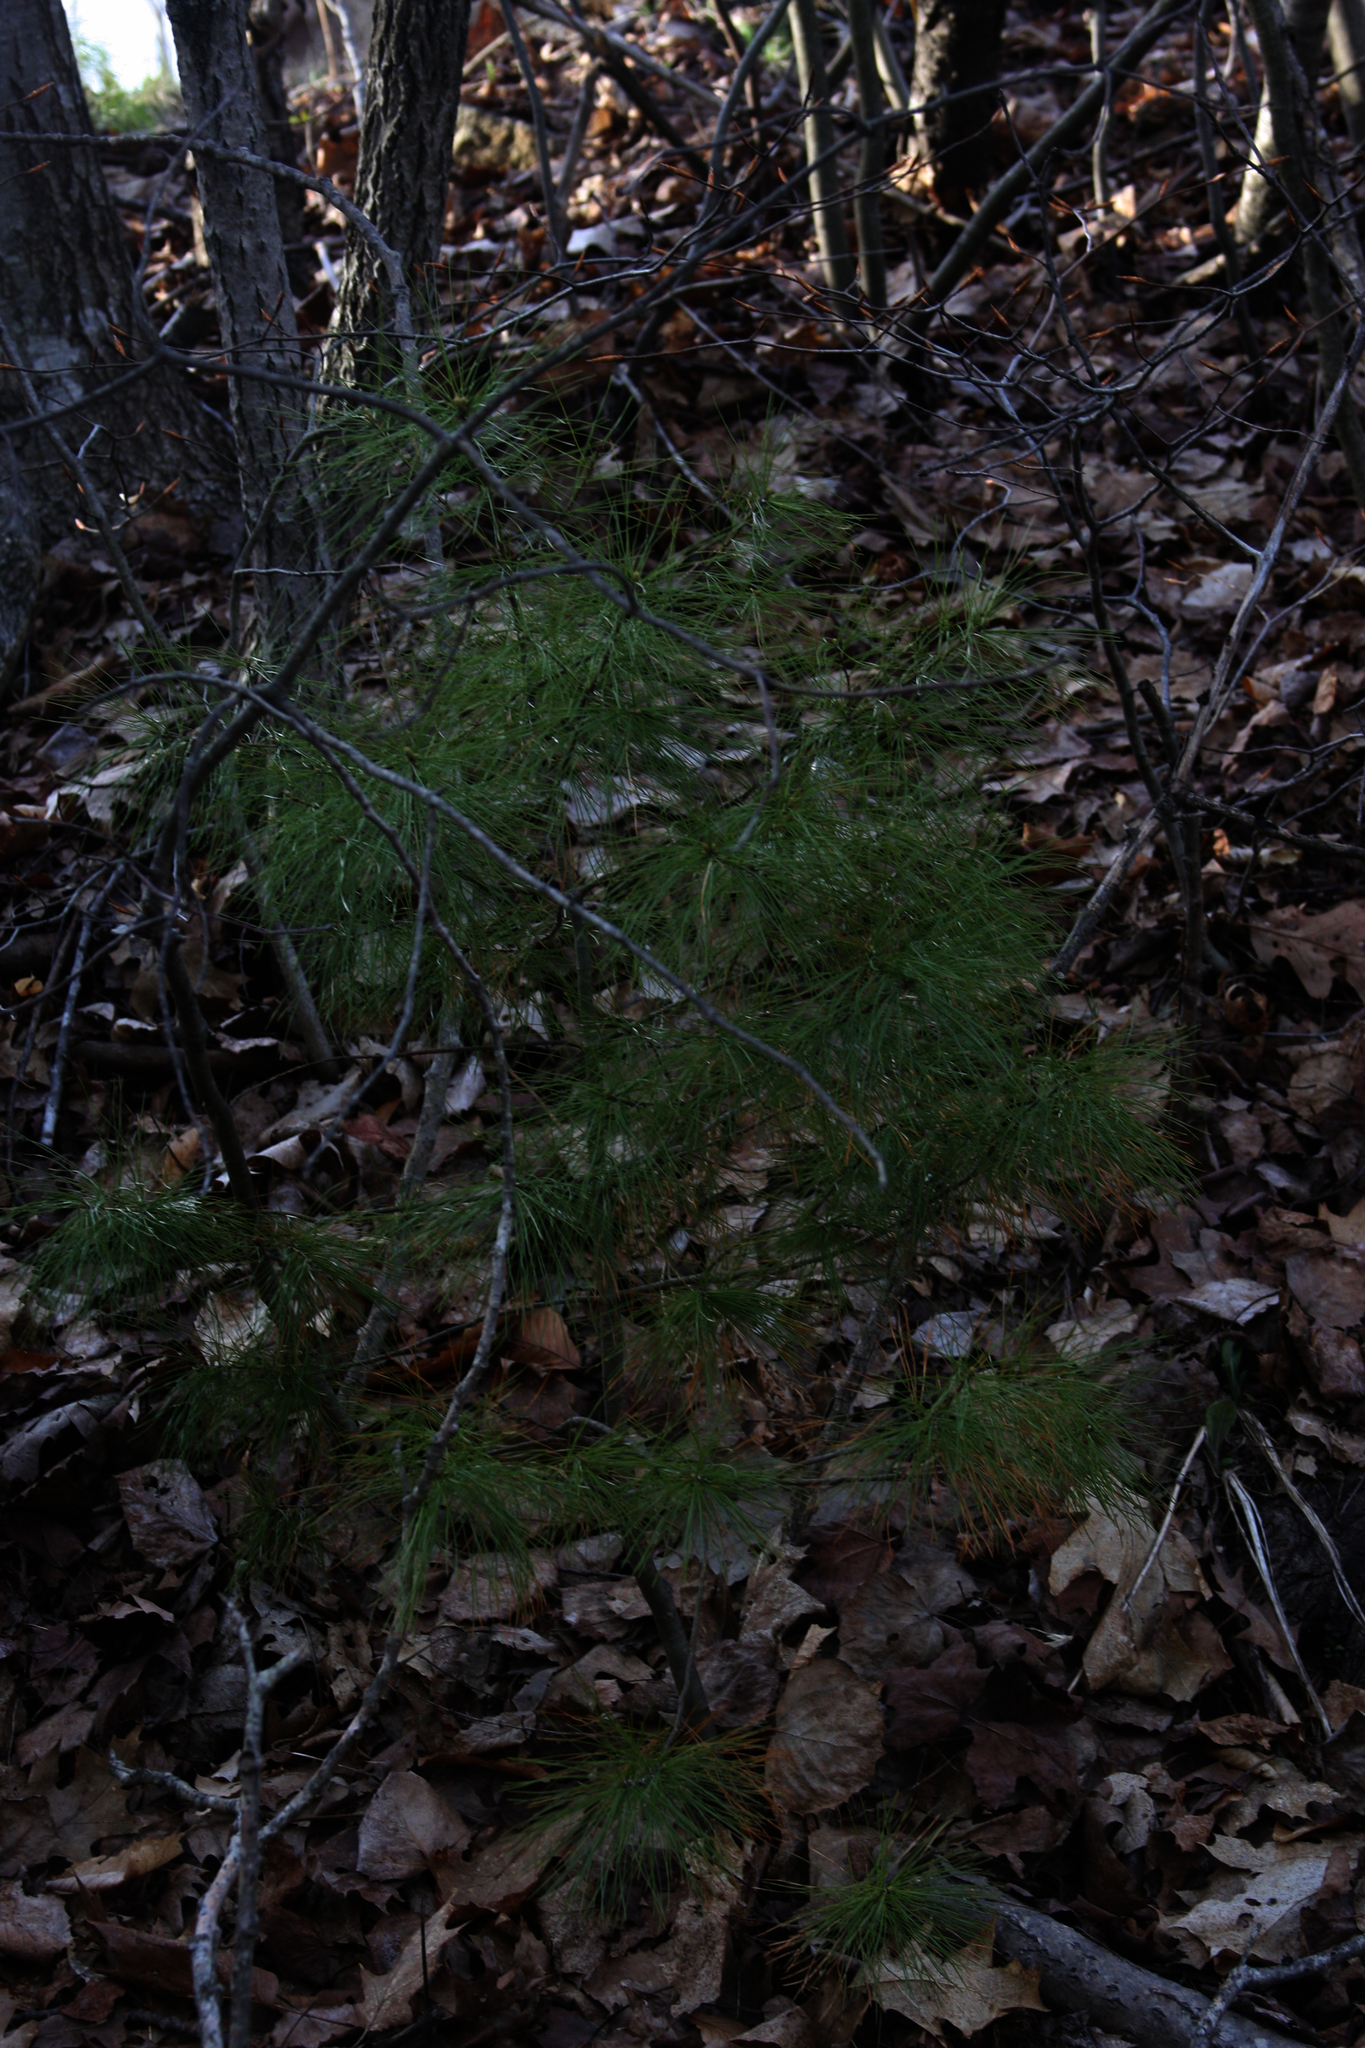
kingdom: Plantae
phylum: Tracheophyta
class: Pinopsida
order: Pinales
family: Pinaceae
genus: Pinus
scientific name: Pinus strobus
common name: Weymouth pine
